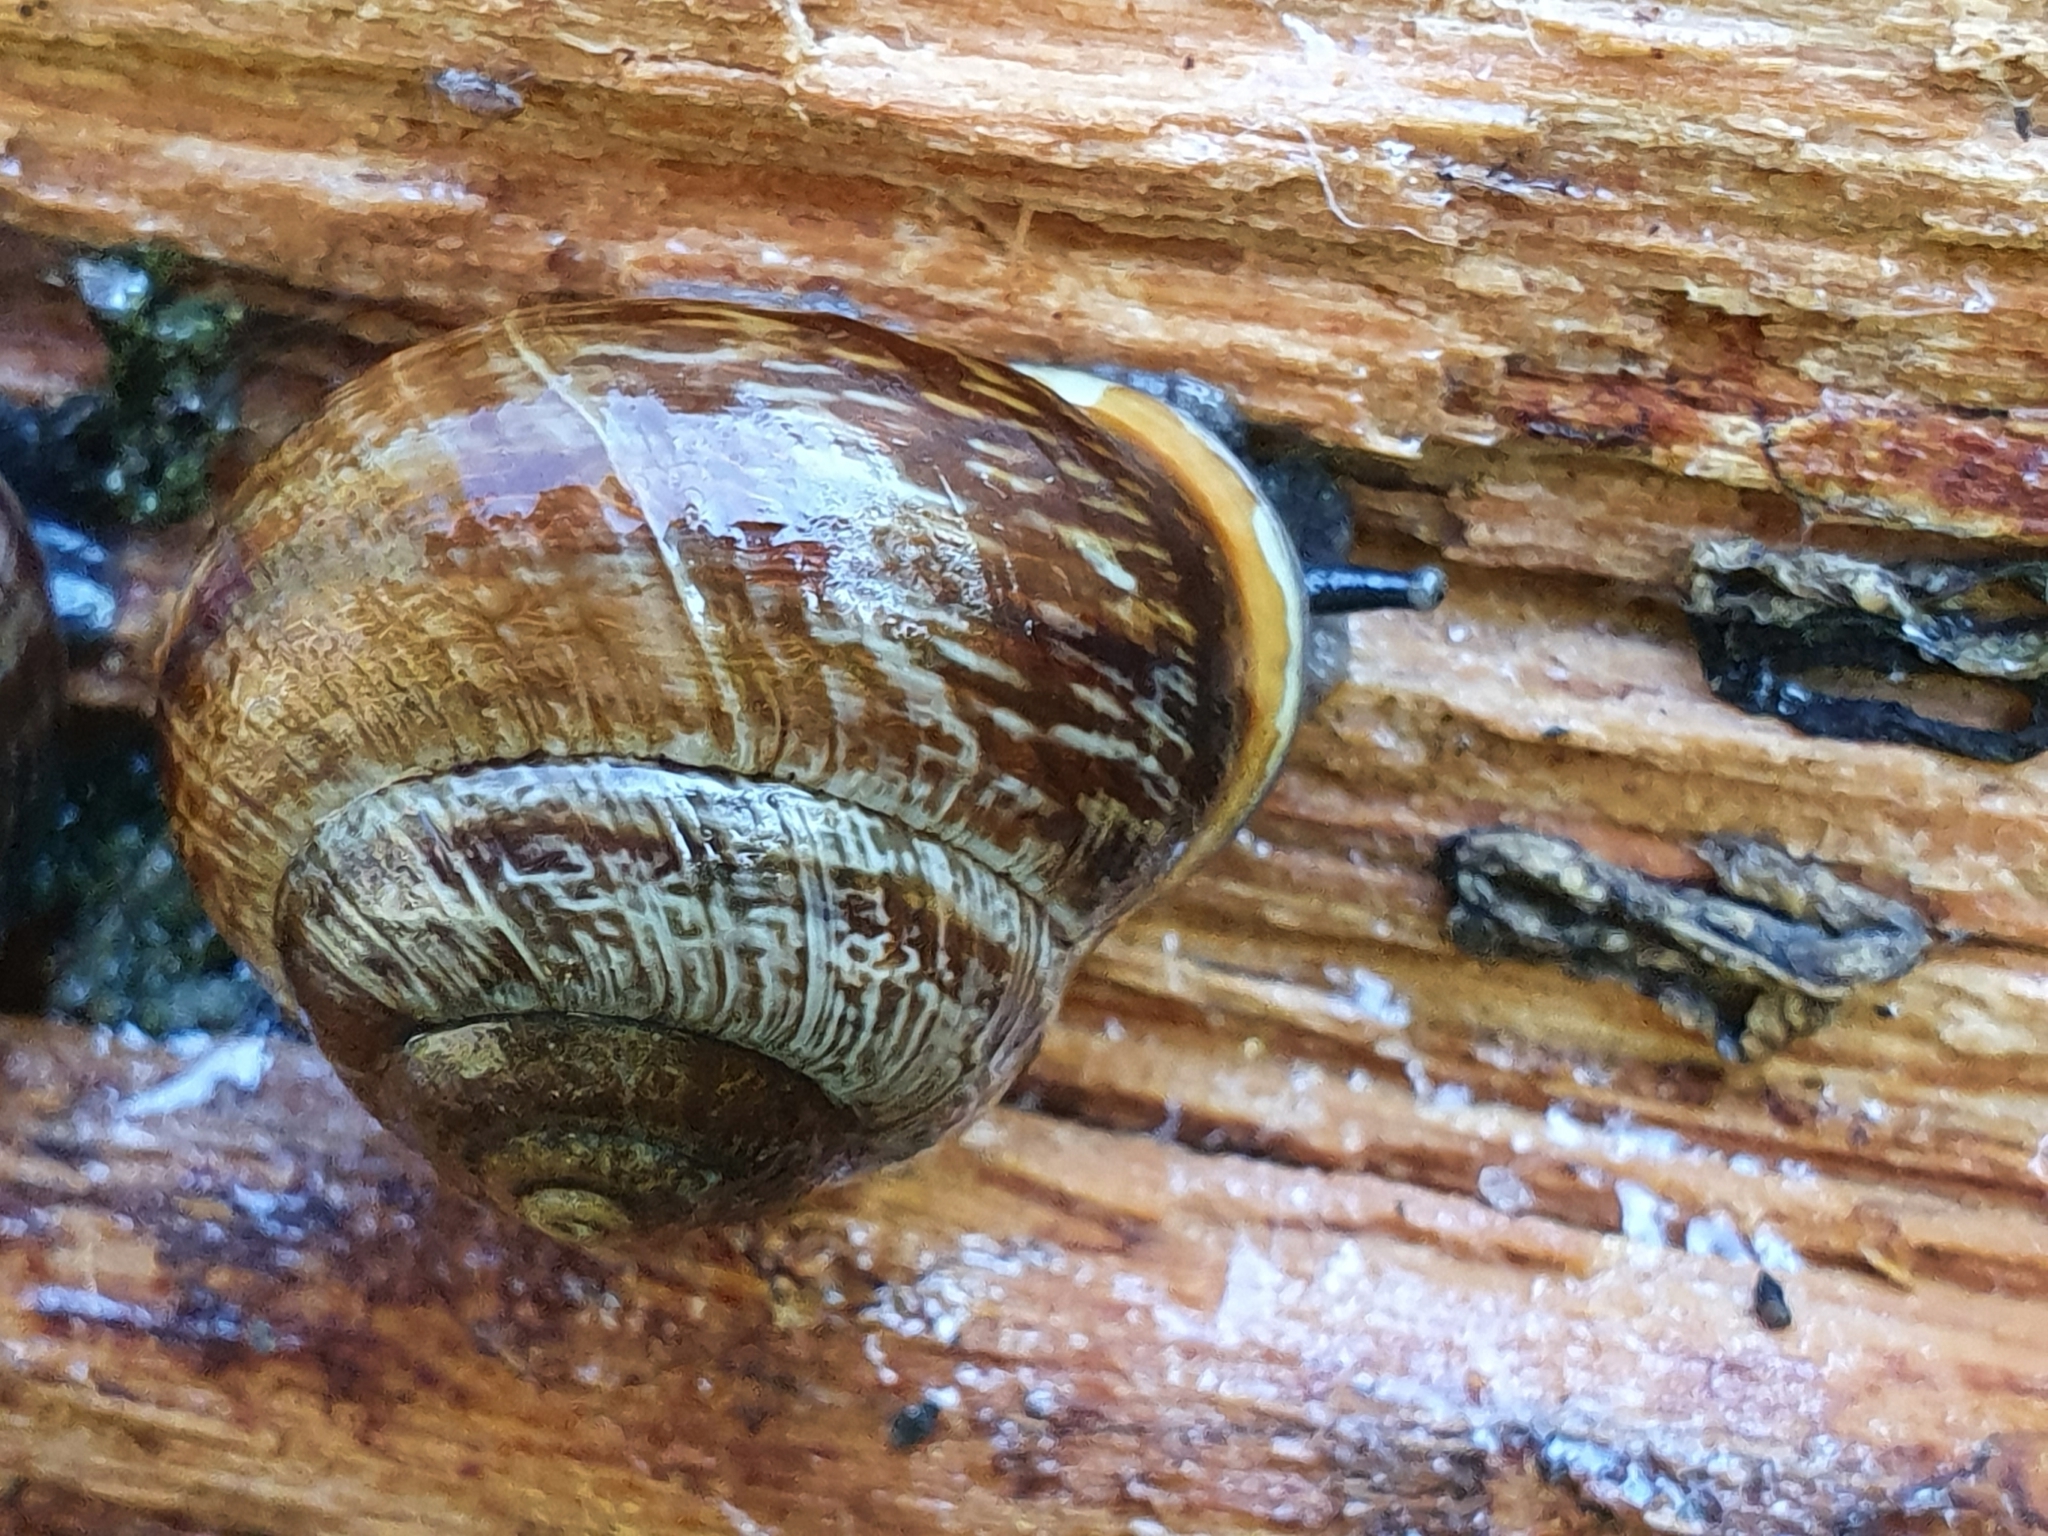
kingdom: Animalia
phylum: Mollusca
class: Gastropoda
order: Stylommatophora
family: Helicidae
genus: Arianta
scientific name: Arianta arbustorum
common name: Copse snail
